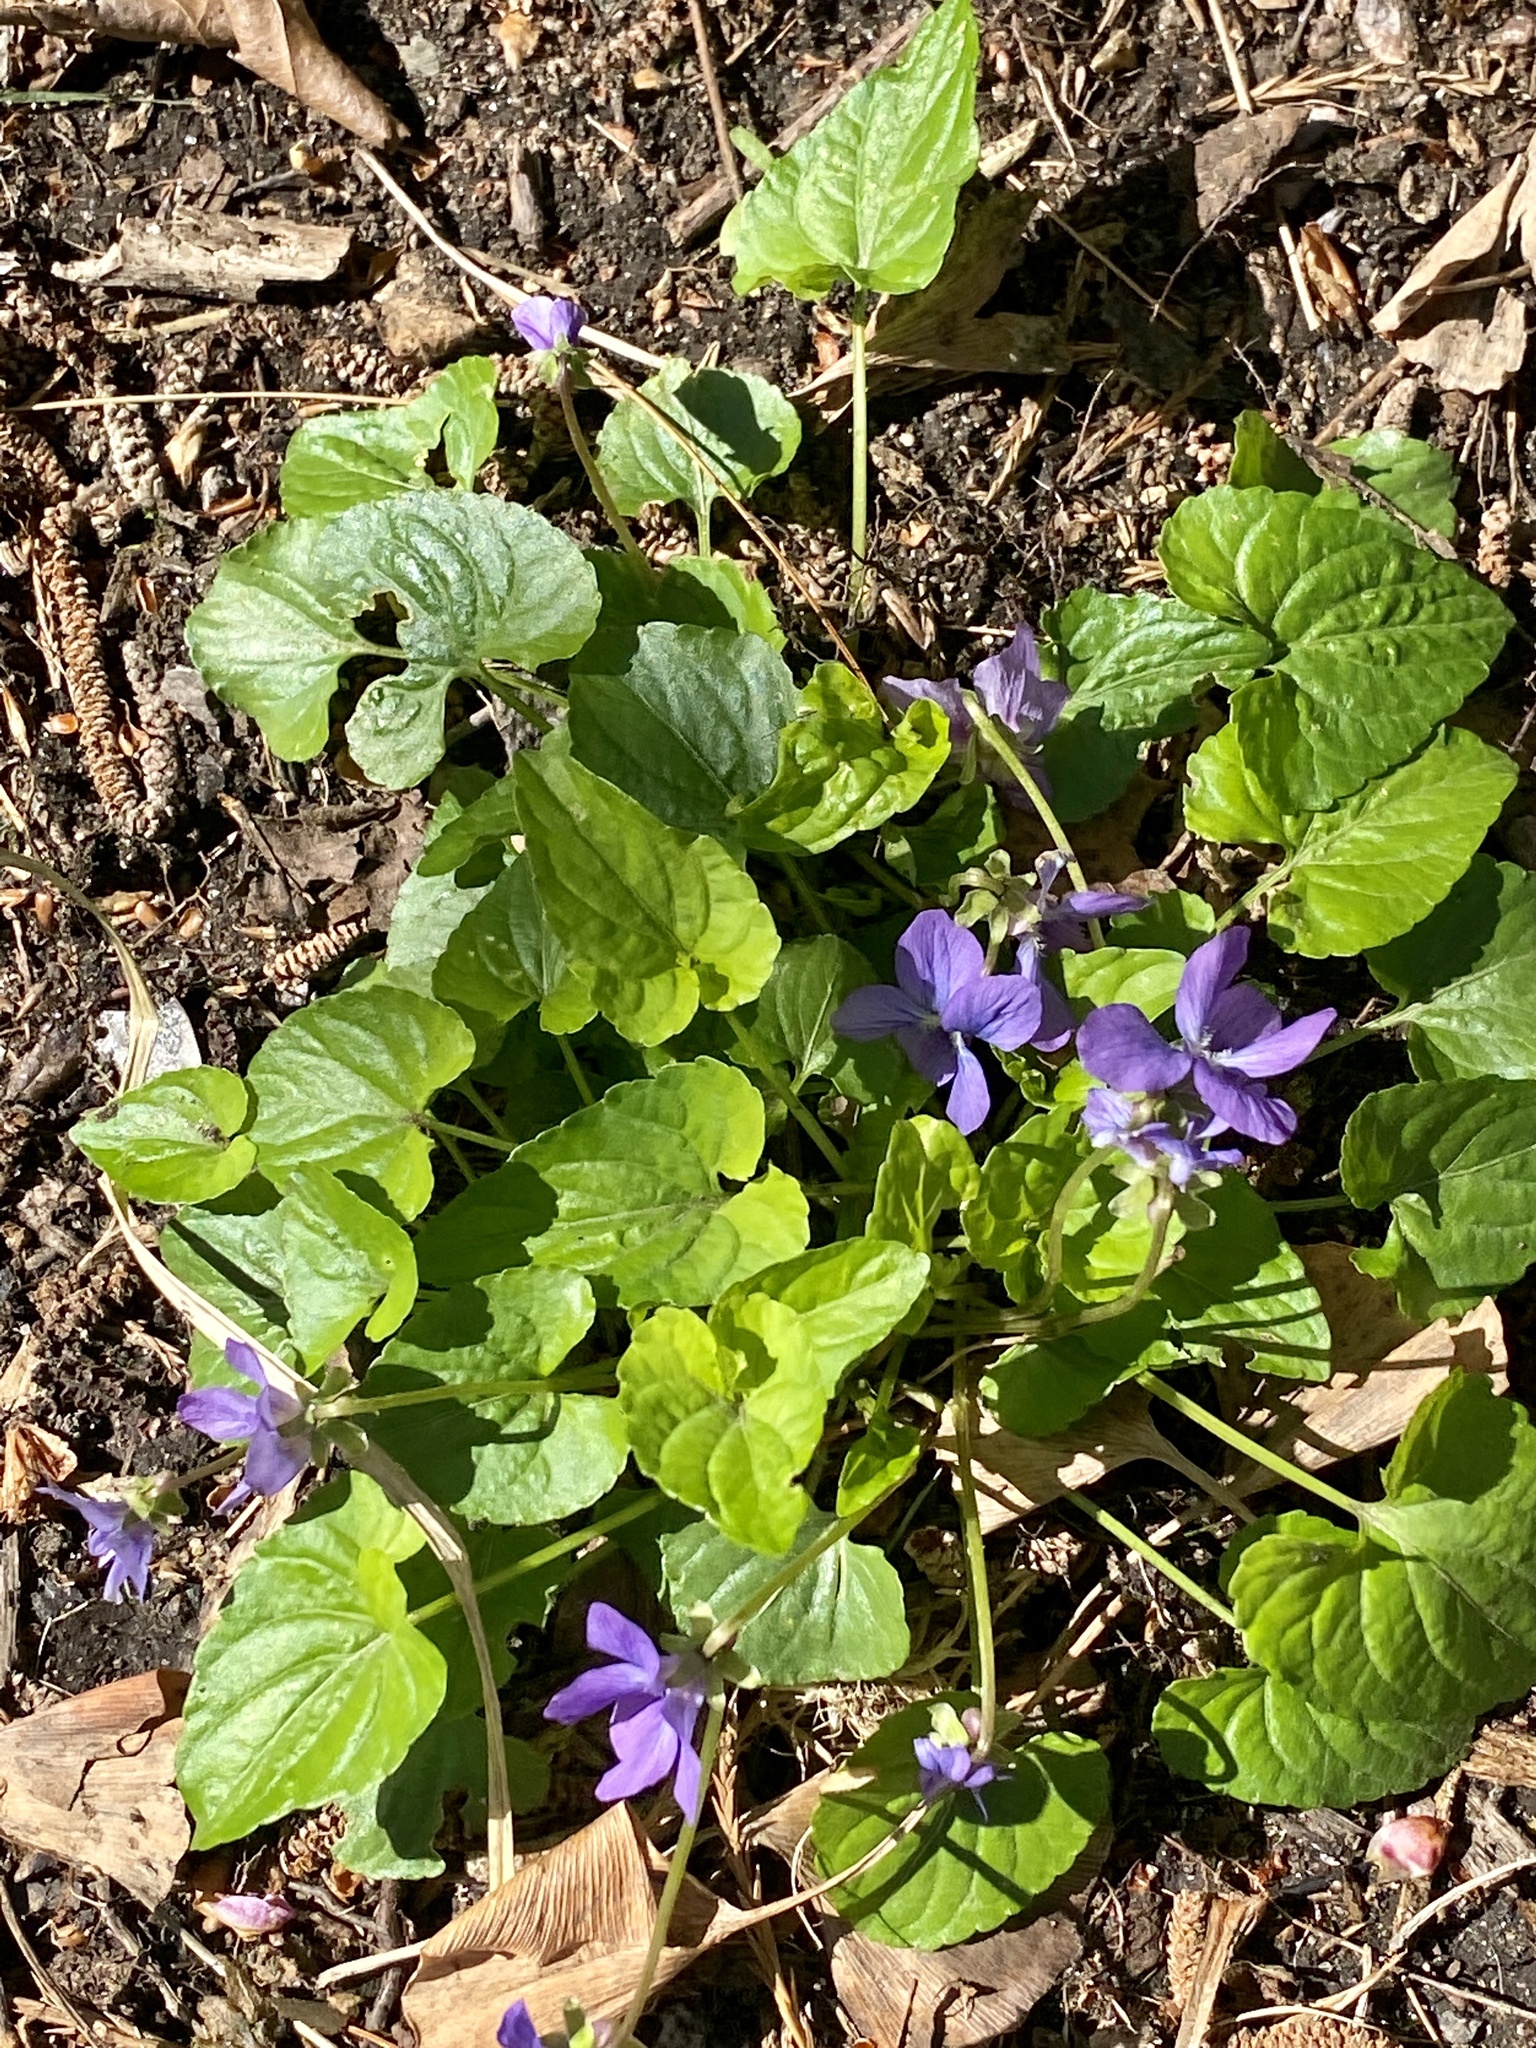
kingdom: Plantae
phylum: Tracheophyta
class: Magnoliopsida
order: Malpighiales
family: Violaceae
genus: Viola
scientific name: Viola sororia
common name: Dooryard violet
